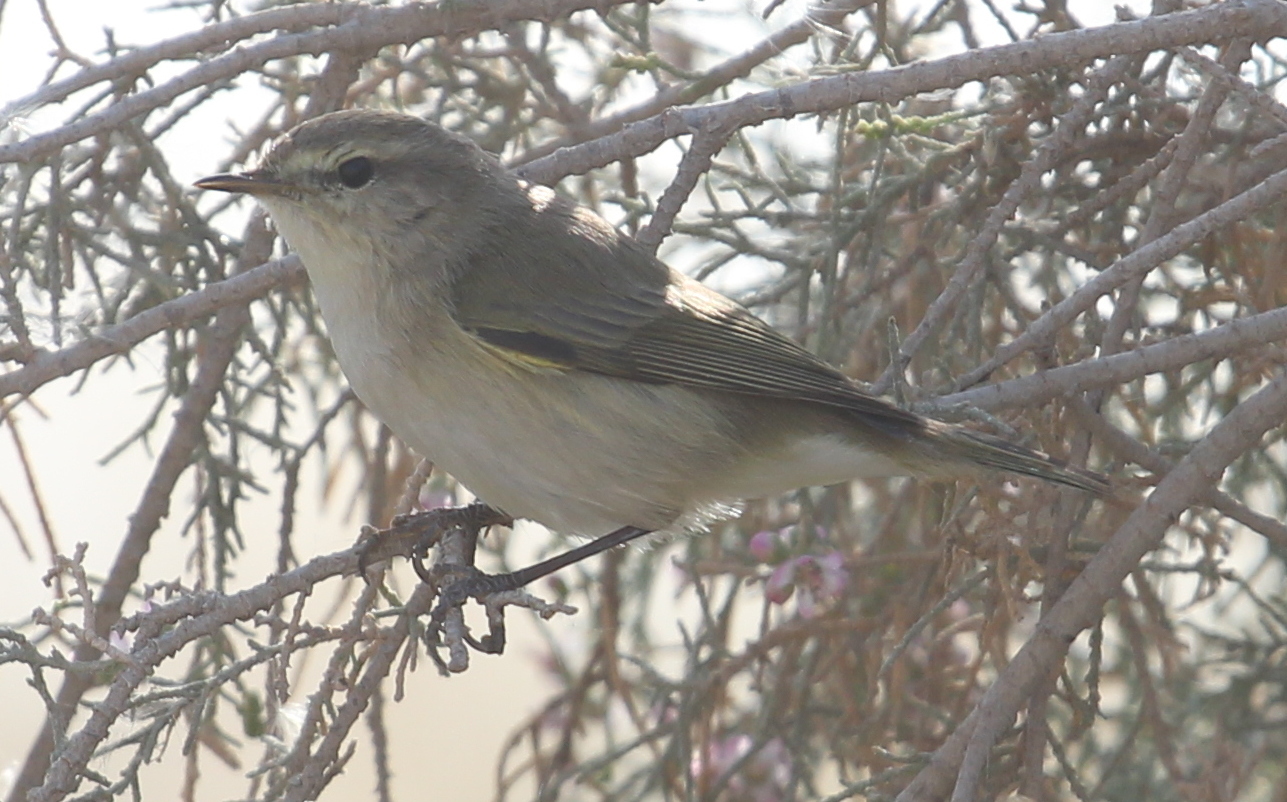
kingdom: Animalia
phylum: Chordata
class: Aves
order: Passeriformes
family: Phylloscopidae
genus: Phylloscopus
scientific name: Phylloscopus collybita
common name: Common chiffchaff
